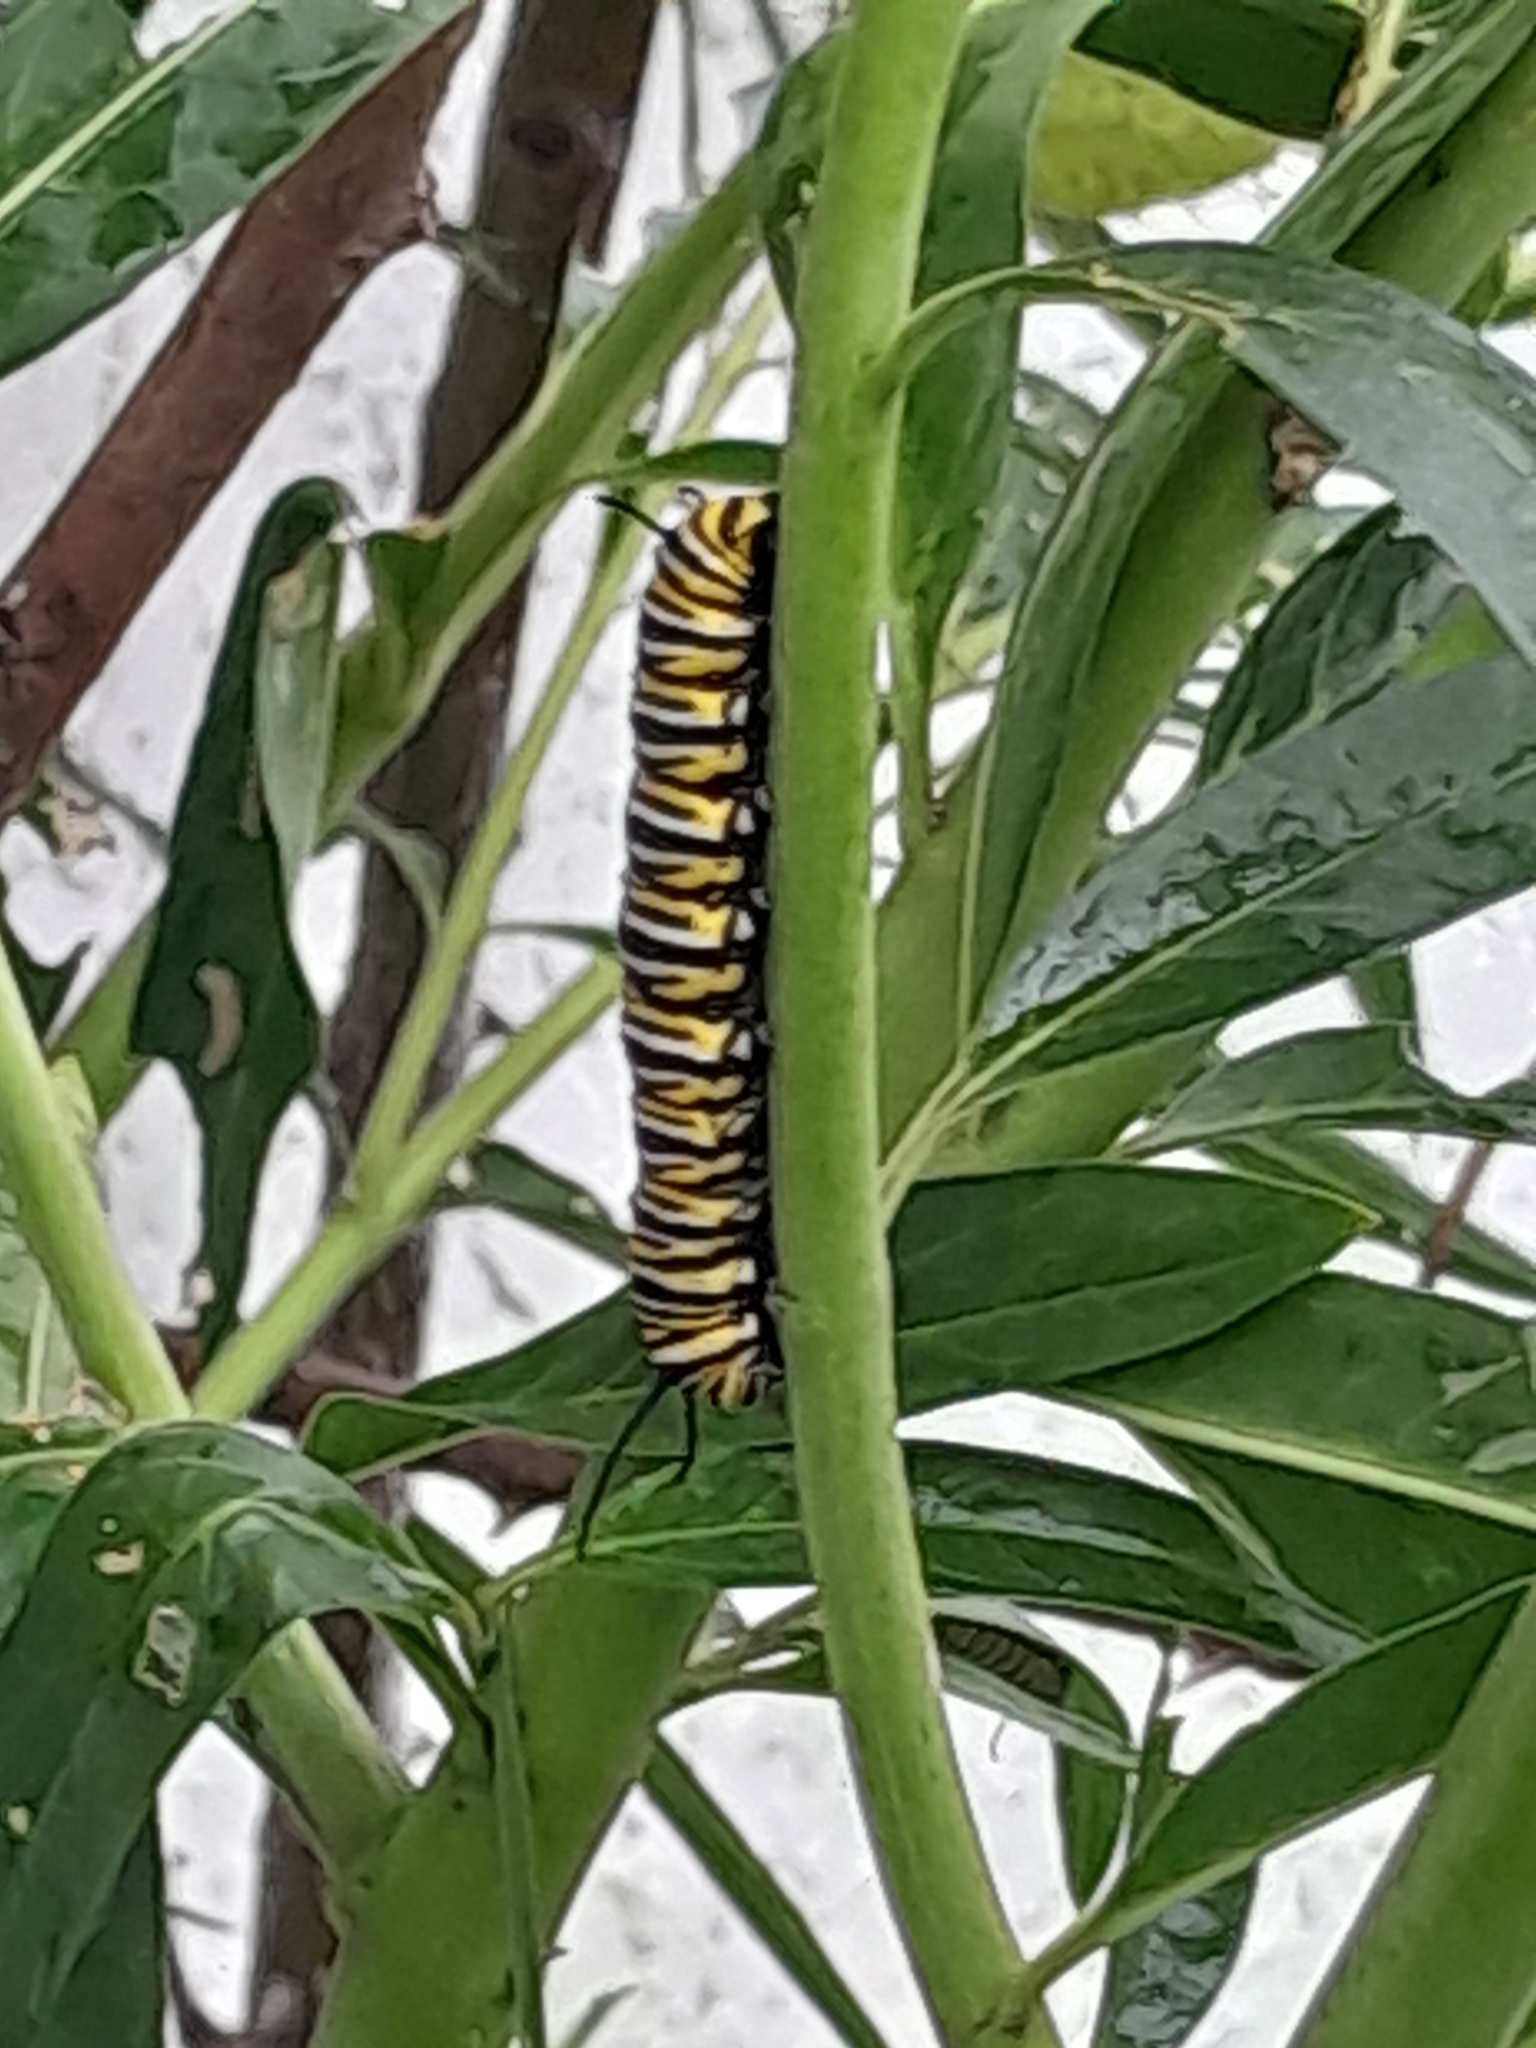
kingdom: Animalia
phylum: Arthropoda
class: Insecta
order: Lepidoptera
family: Nymphalidae
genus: Danaus
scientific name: Danaus plexippus
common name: Monarch
